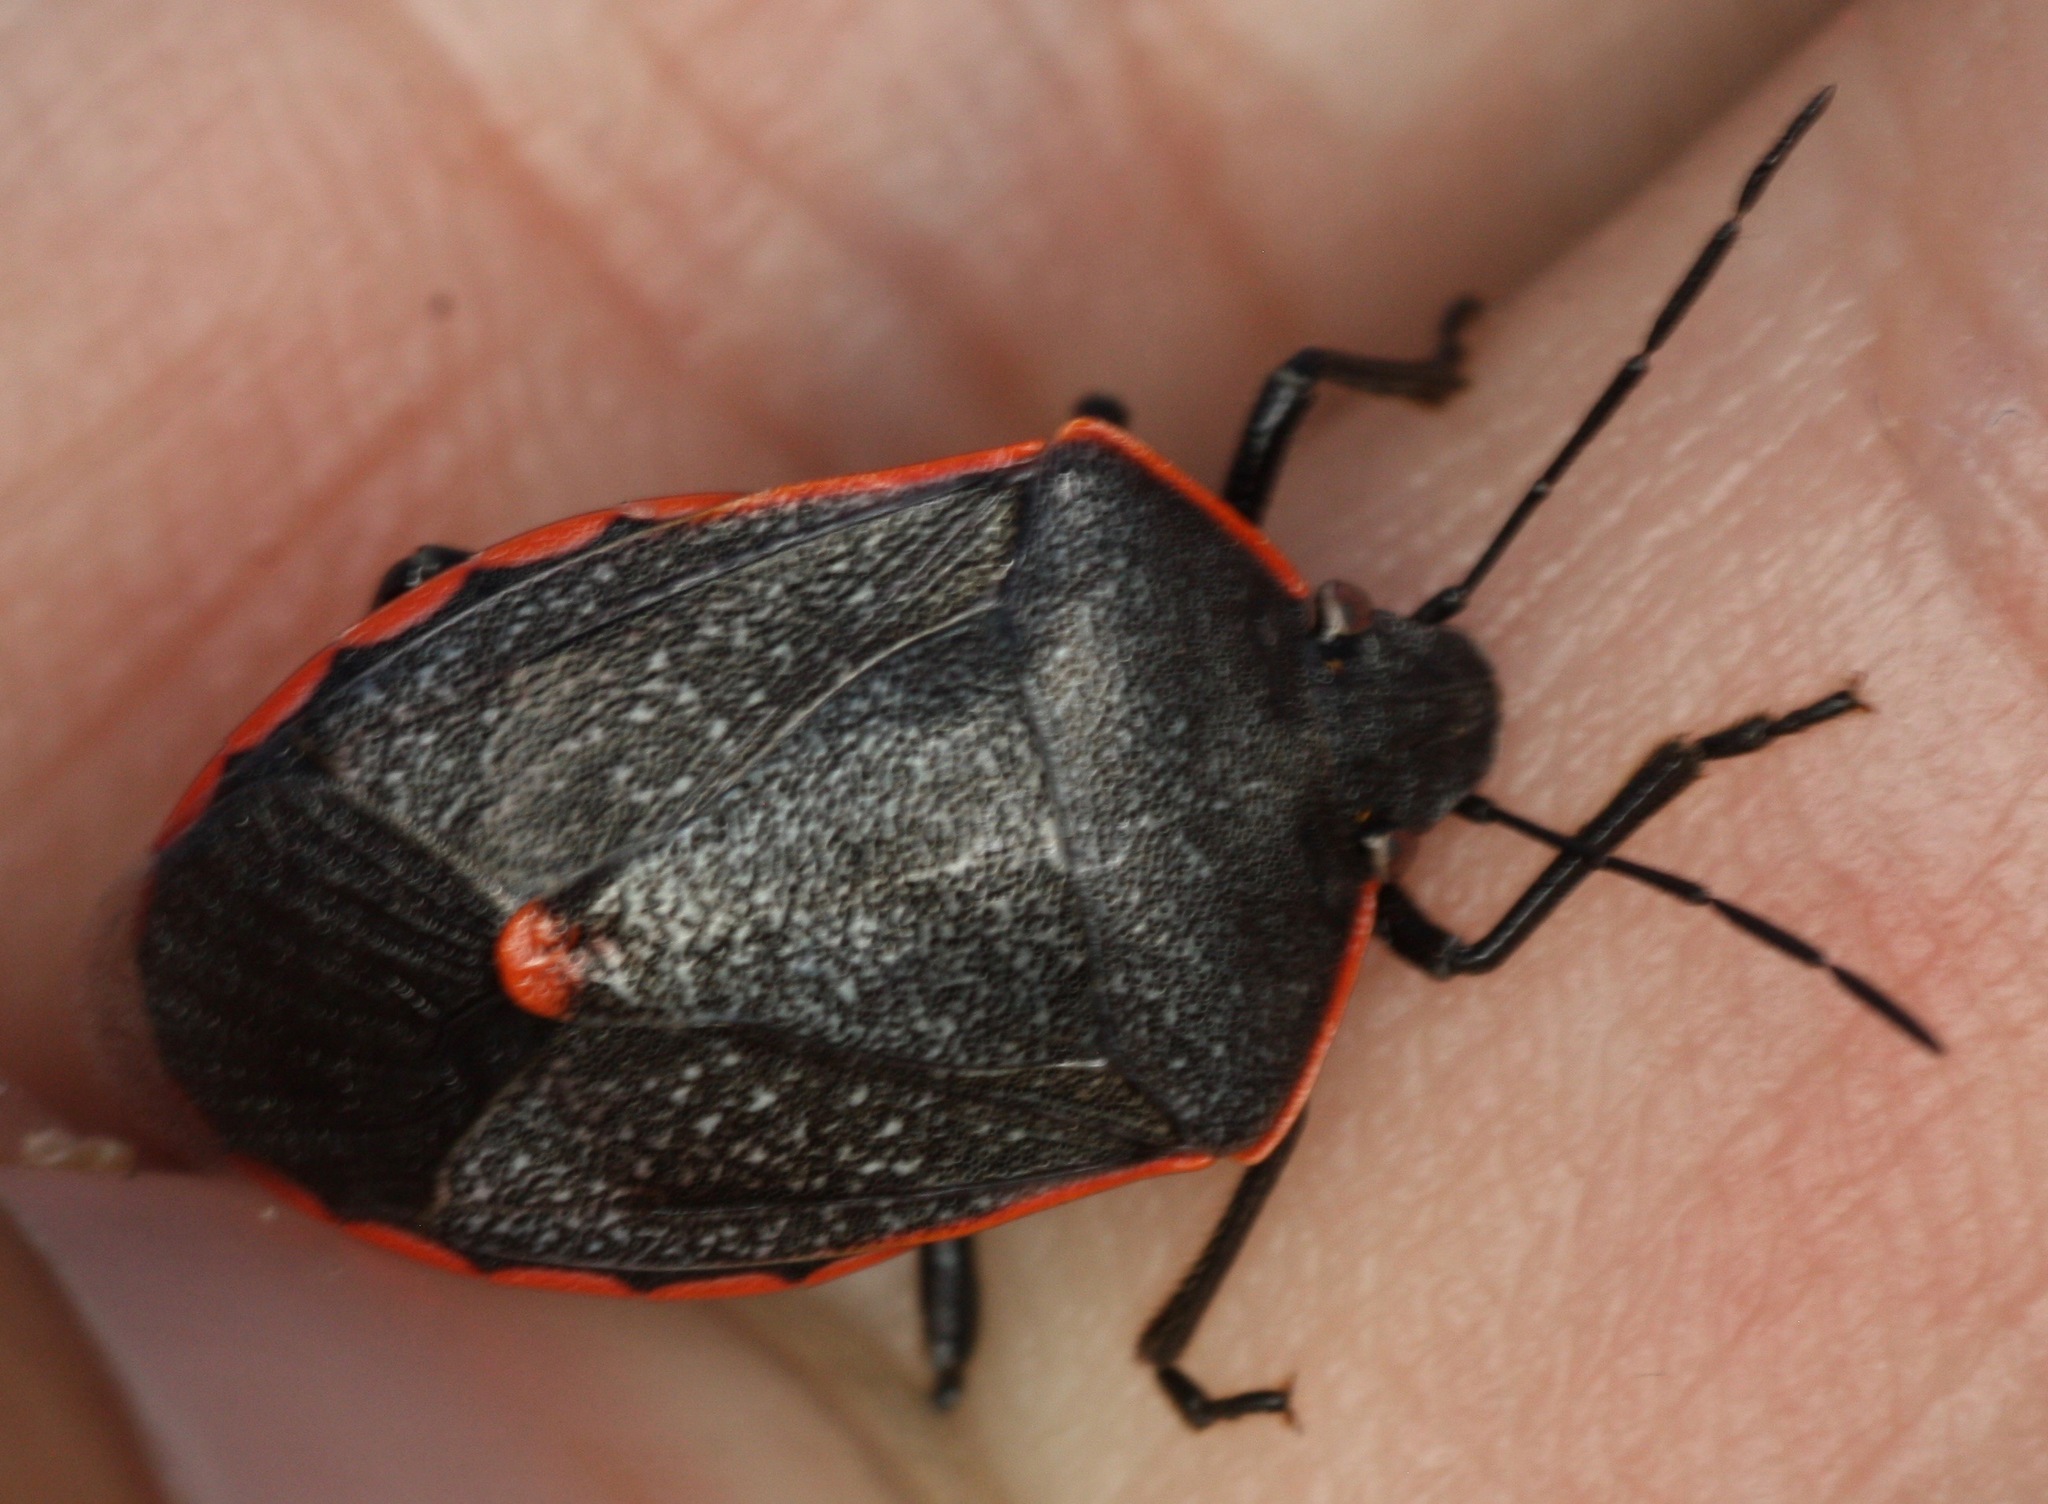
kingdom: Animalia
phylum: Arthropoda
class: Insecta
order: Hemiptera
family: Pentatomidae
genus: Chlorochroa
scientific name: Chlorochroa ligata
